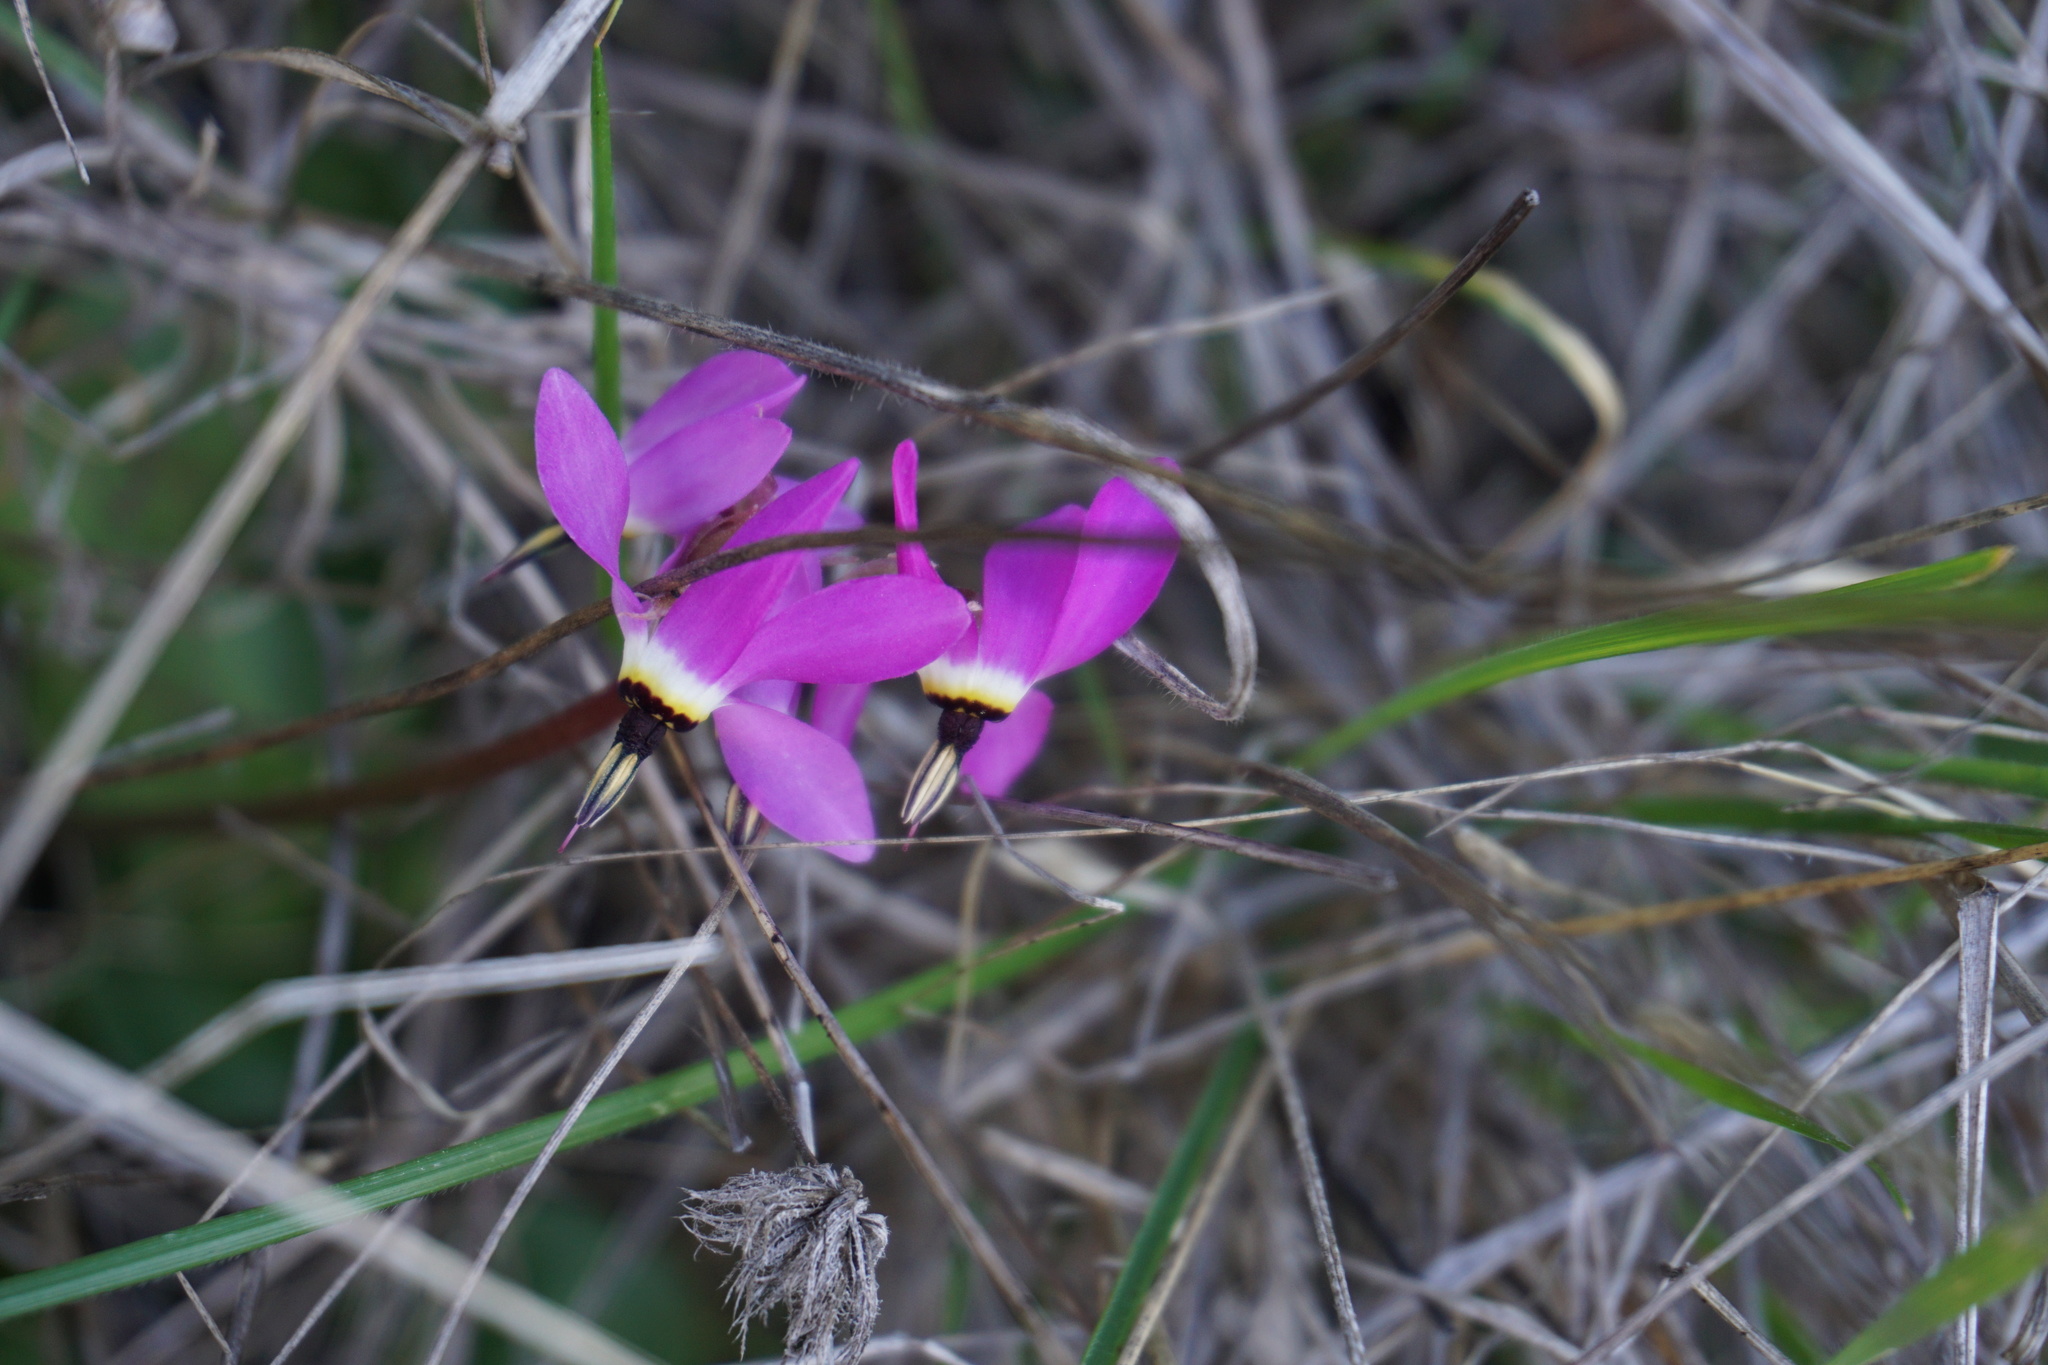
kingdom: Plantae
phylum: Tracheophyta
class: Magnoliopsida
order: Ericales
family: Primulaceae
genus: Dodecatheon
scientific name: Dodecatheon hendersonii
